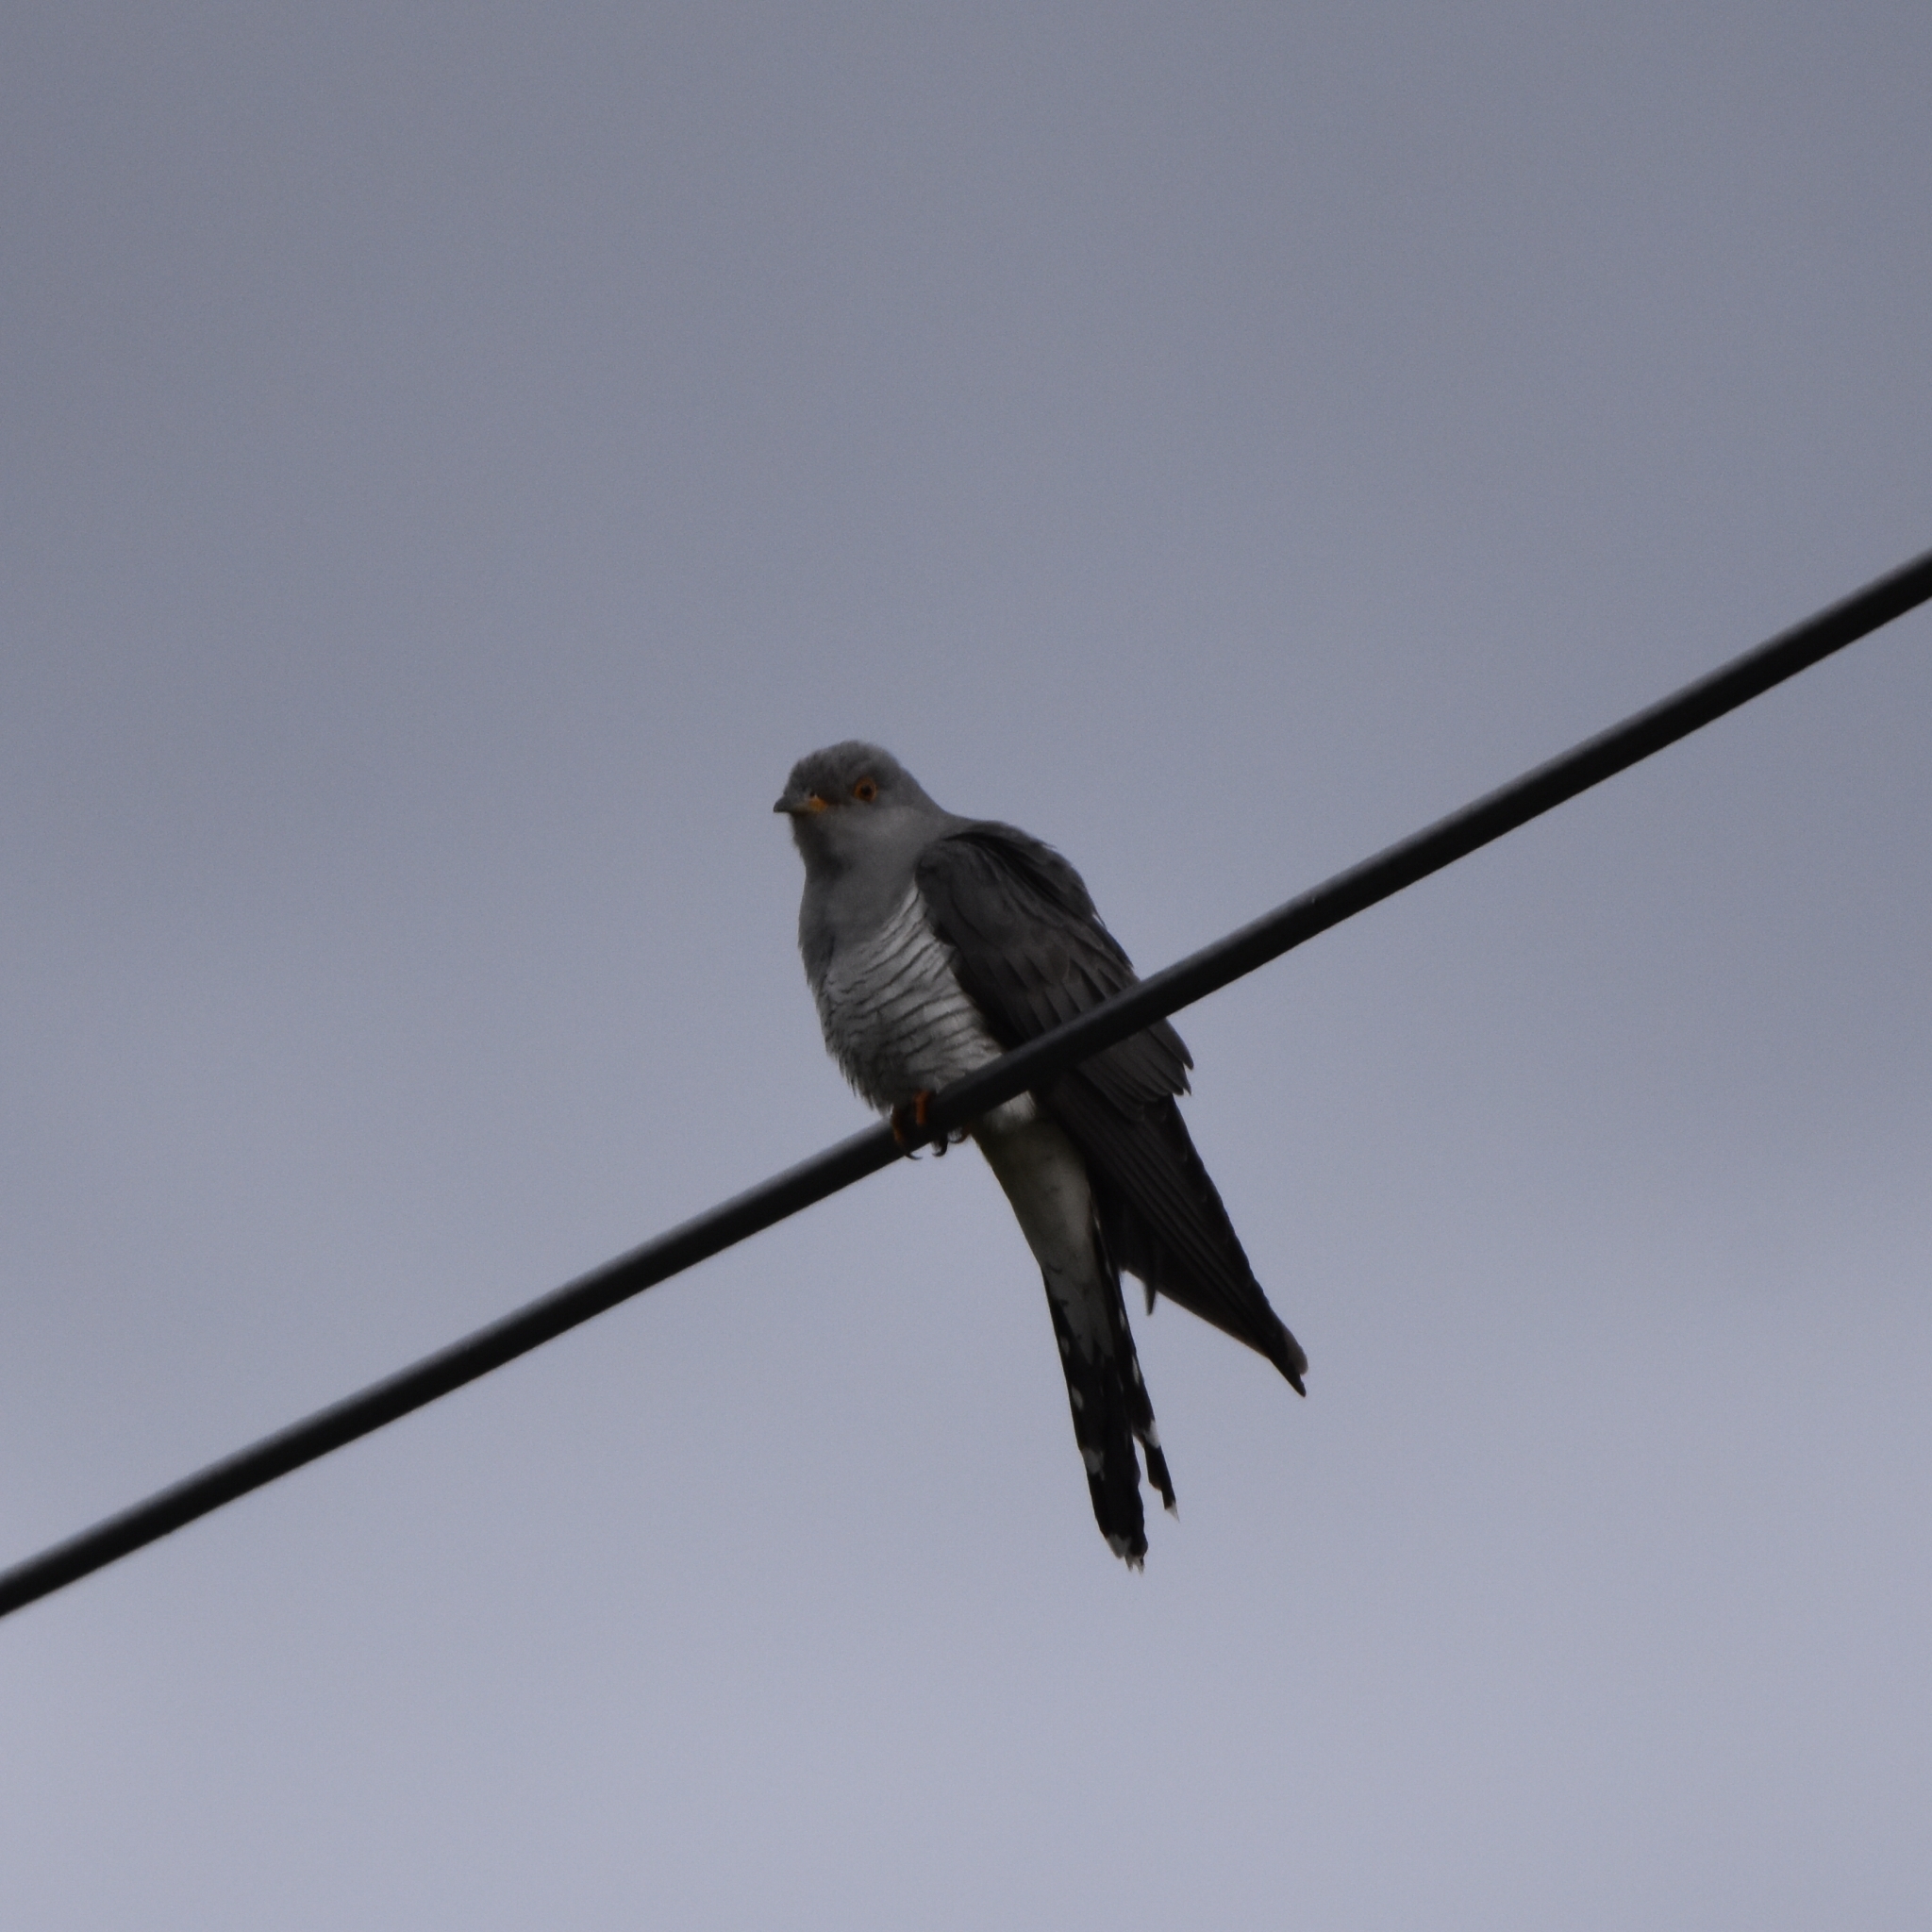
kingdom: Animalia
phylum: Chordata
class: Aves
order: Cuculiformes
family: Cuculidae
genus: Cuculus
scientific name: Cuculus canorus
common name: Common cuckoo
